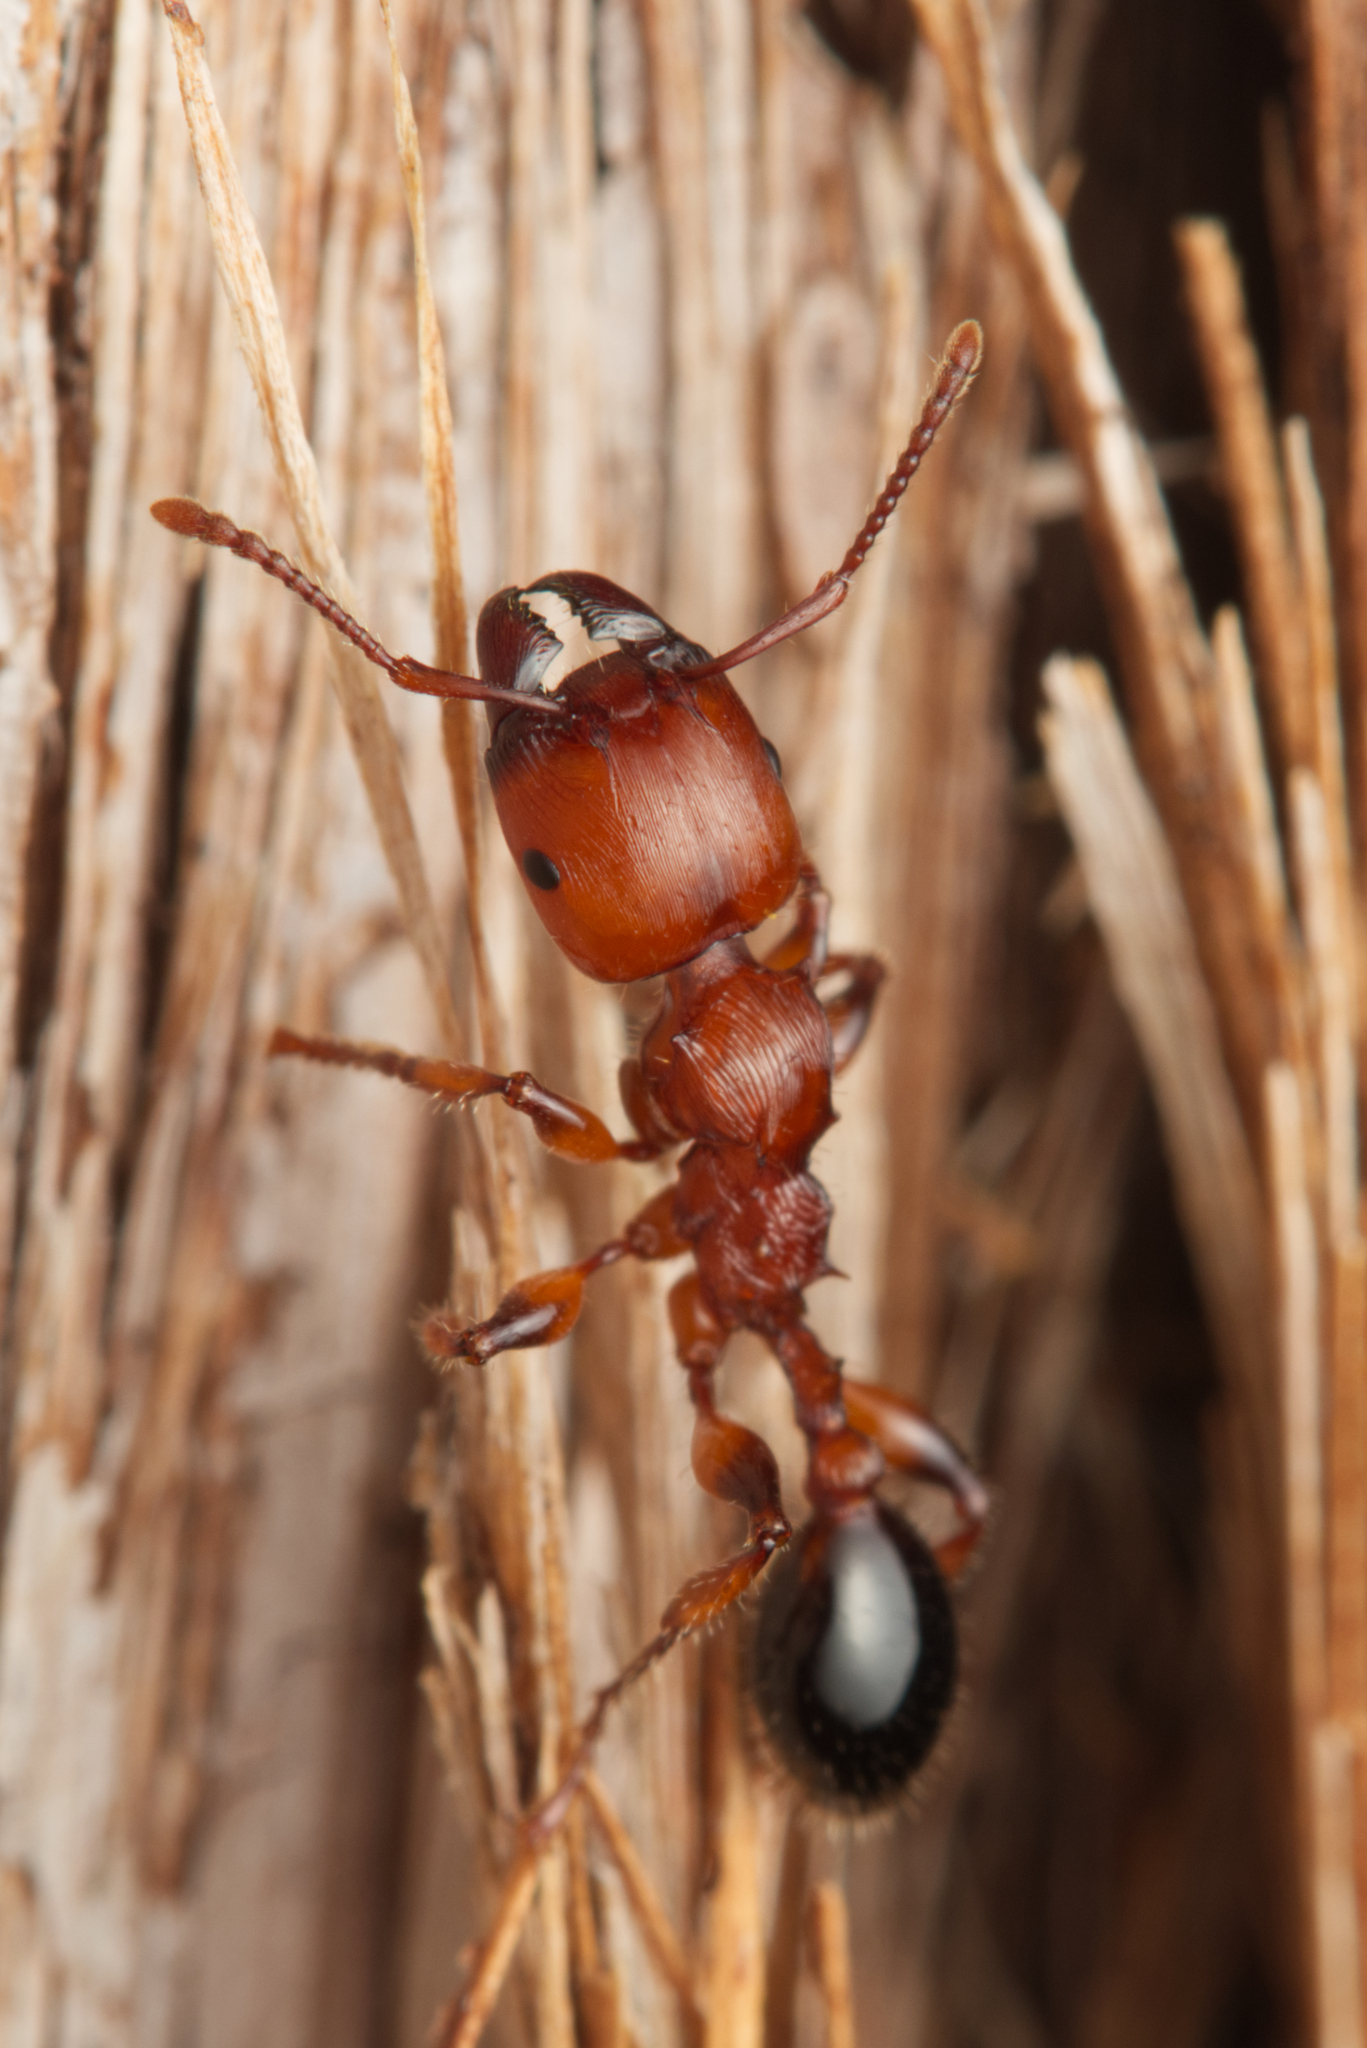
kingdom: Animalia
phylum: Arthropoda
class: Insecta
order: Hymenoptera
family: Formicidae
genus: Podomyrma
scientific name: Podomyrma gratiosa
